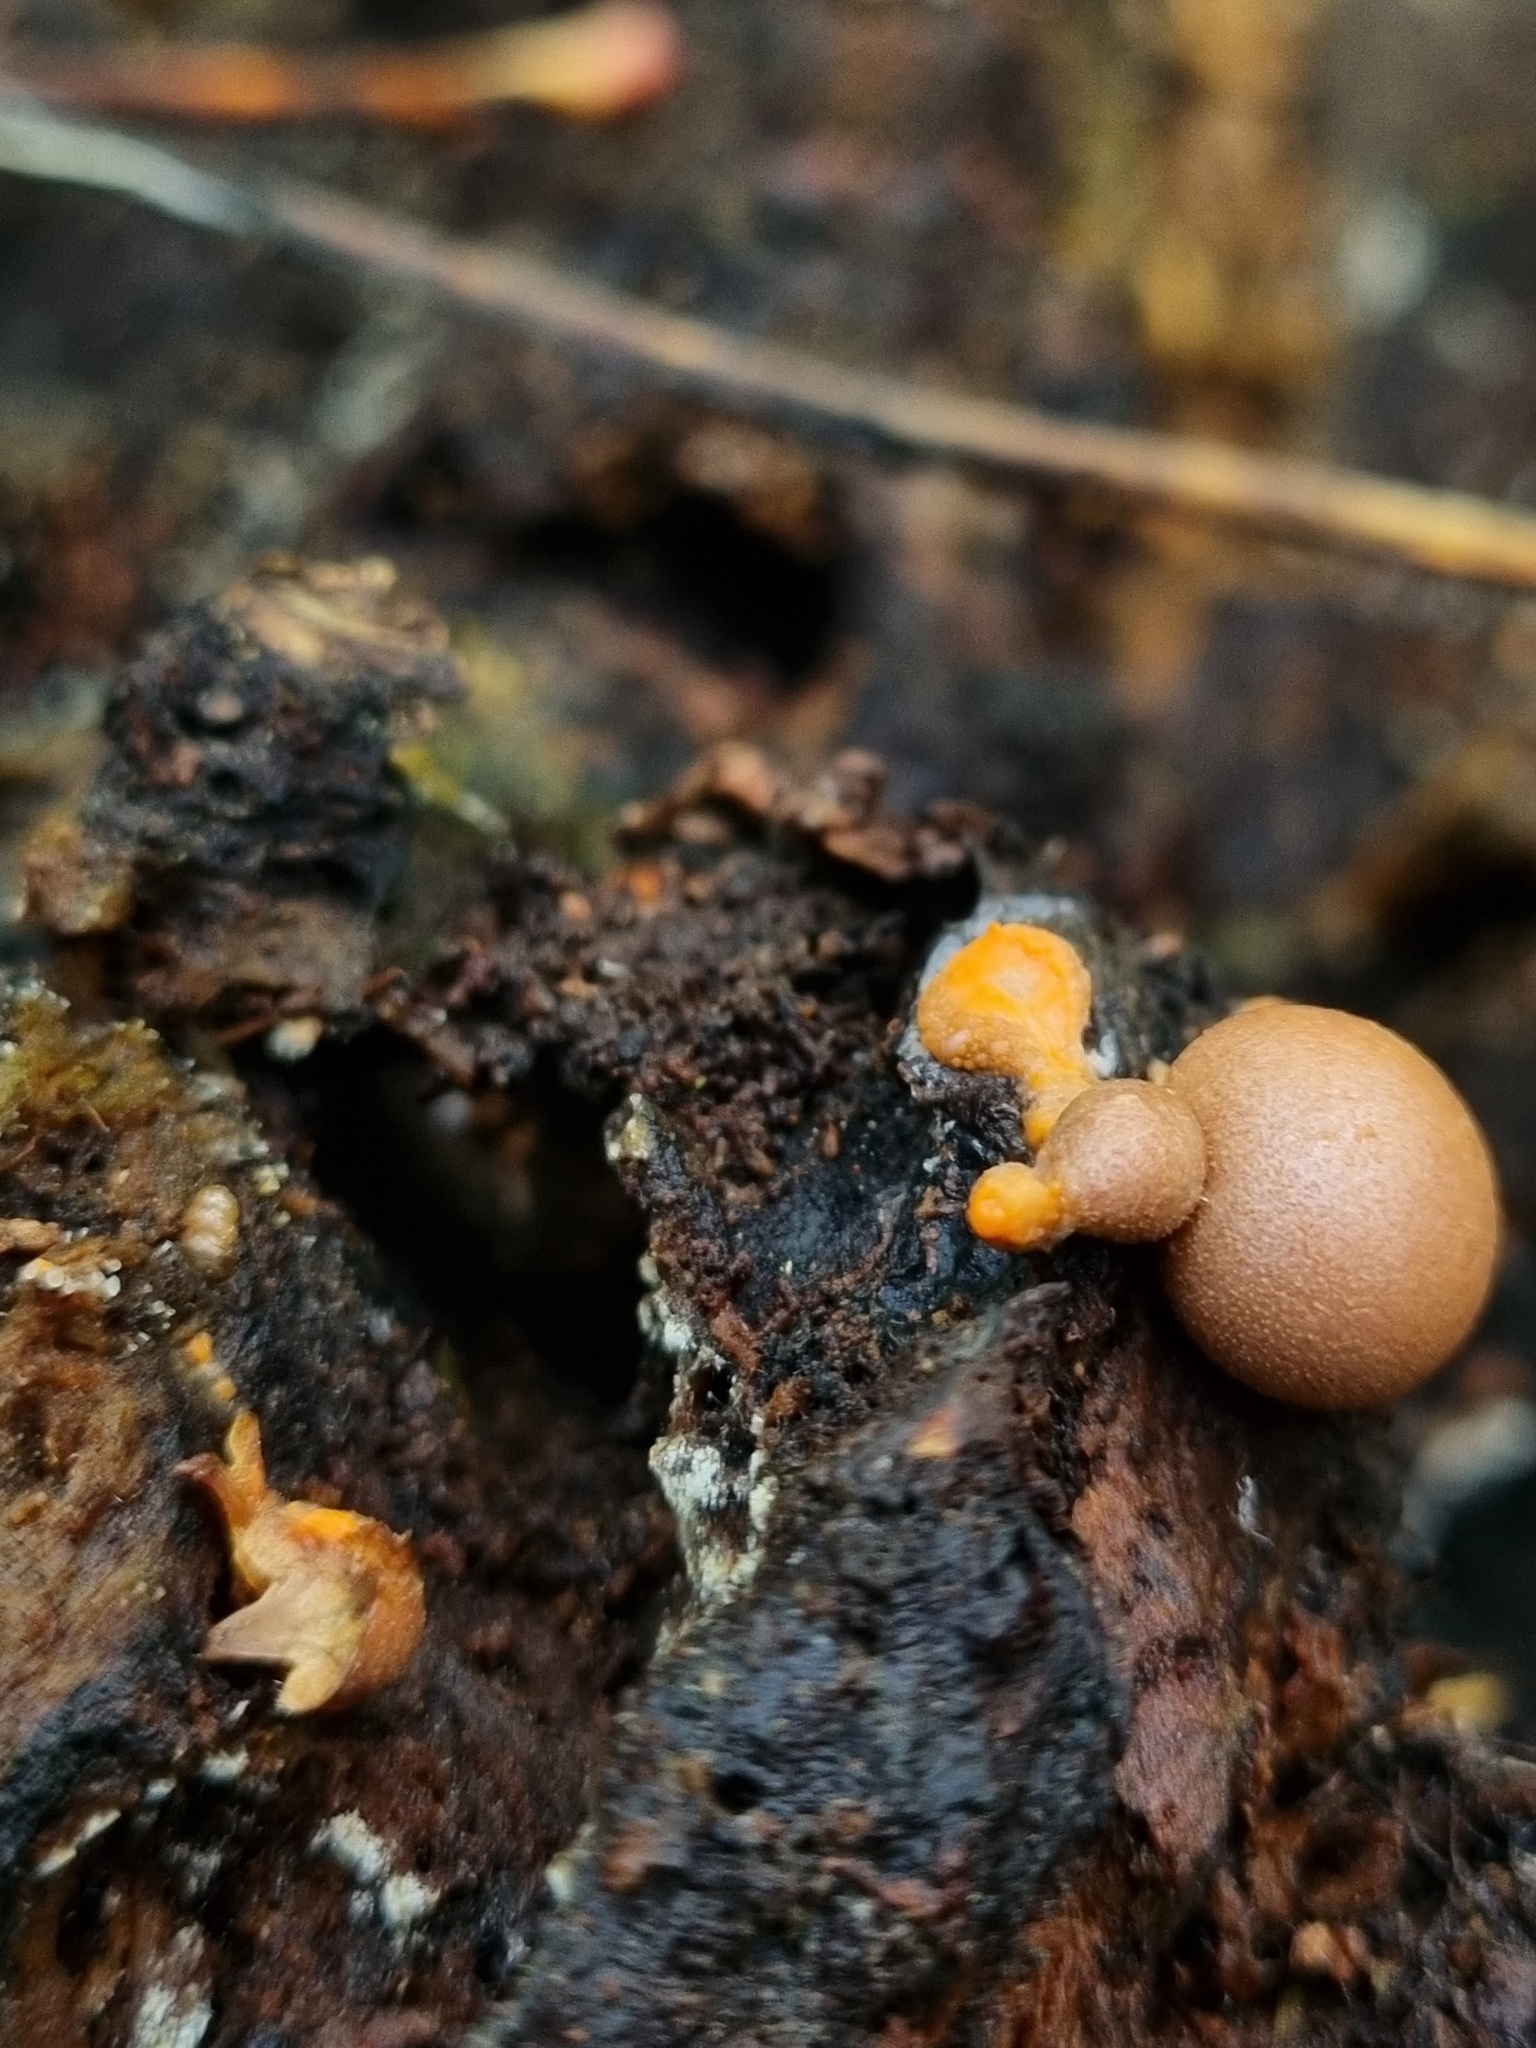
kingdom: Protozoa
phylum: Mycetozoa
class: Myxomycetes
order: Cribrariales
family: Tubiferaceae
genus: Lycogala
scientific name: Lycogala epidendrum
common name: Wolf's milk
